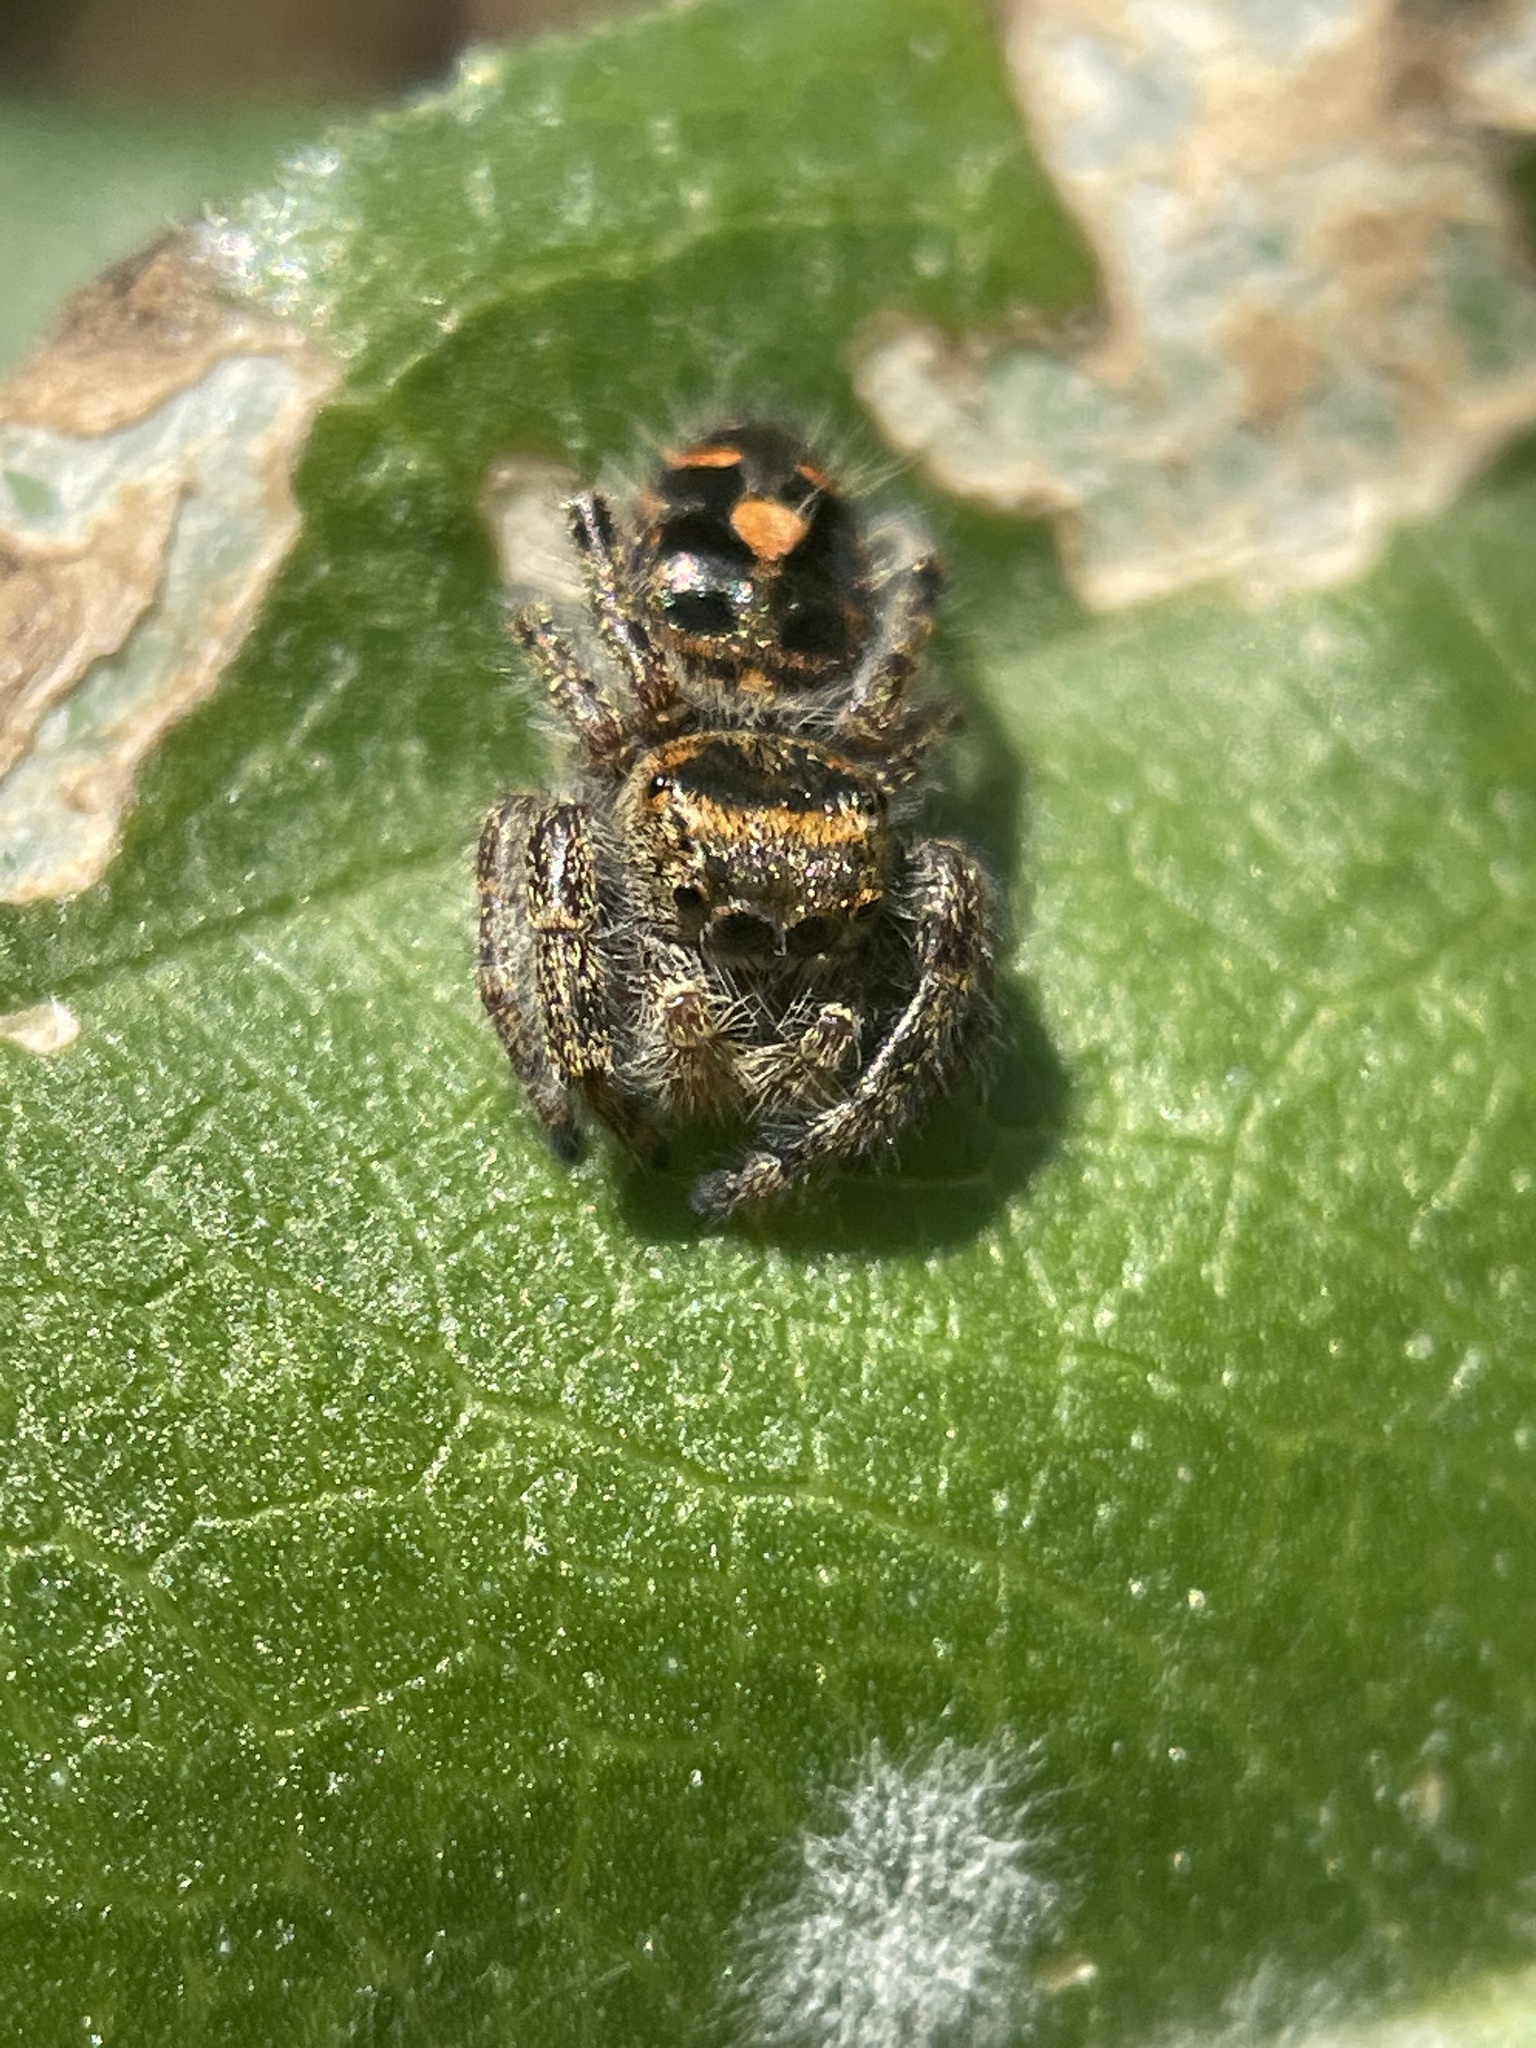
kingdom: Animalia
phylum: Arthropoda
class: Arachnida
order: Araneae
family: Salticidae
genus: Phidippus
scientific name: Phidippus audax
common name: Bold jumper
